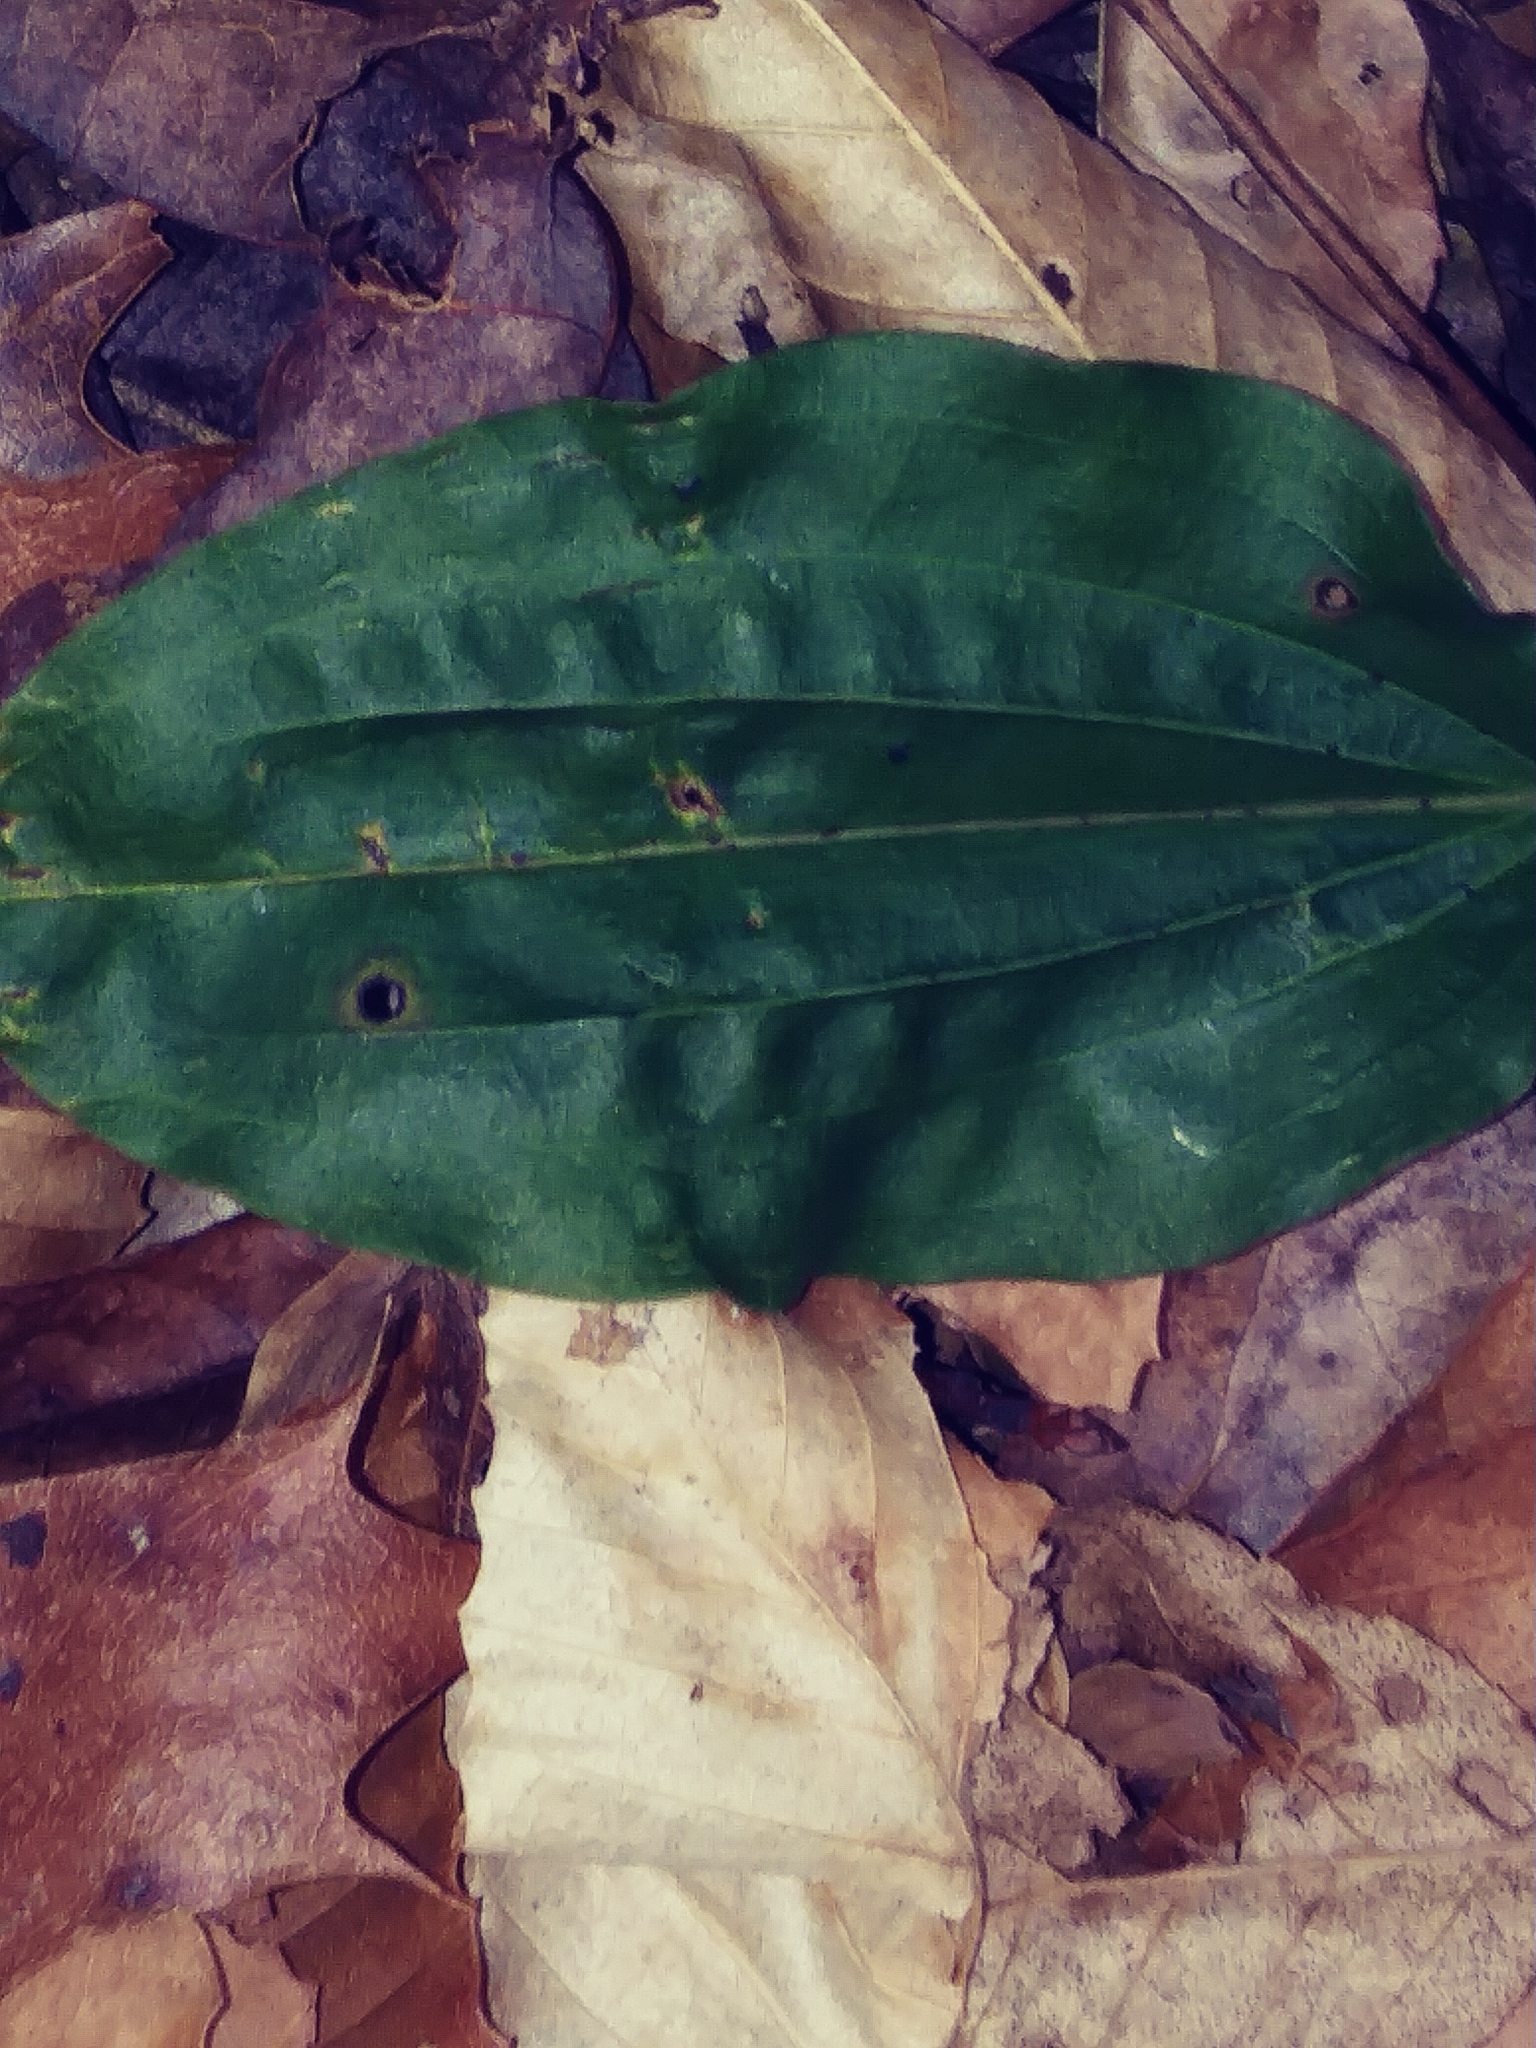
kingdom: Plantae
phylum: Tracheophyta
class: Liliopsida
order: Asparagales
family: Orchidaceae
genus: Tipularia
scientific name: Tipularia discolor
